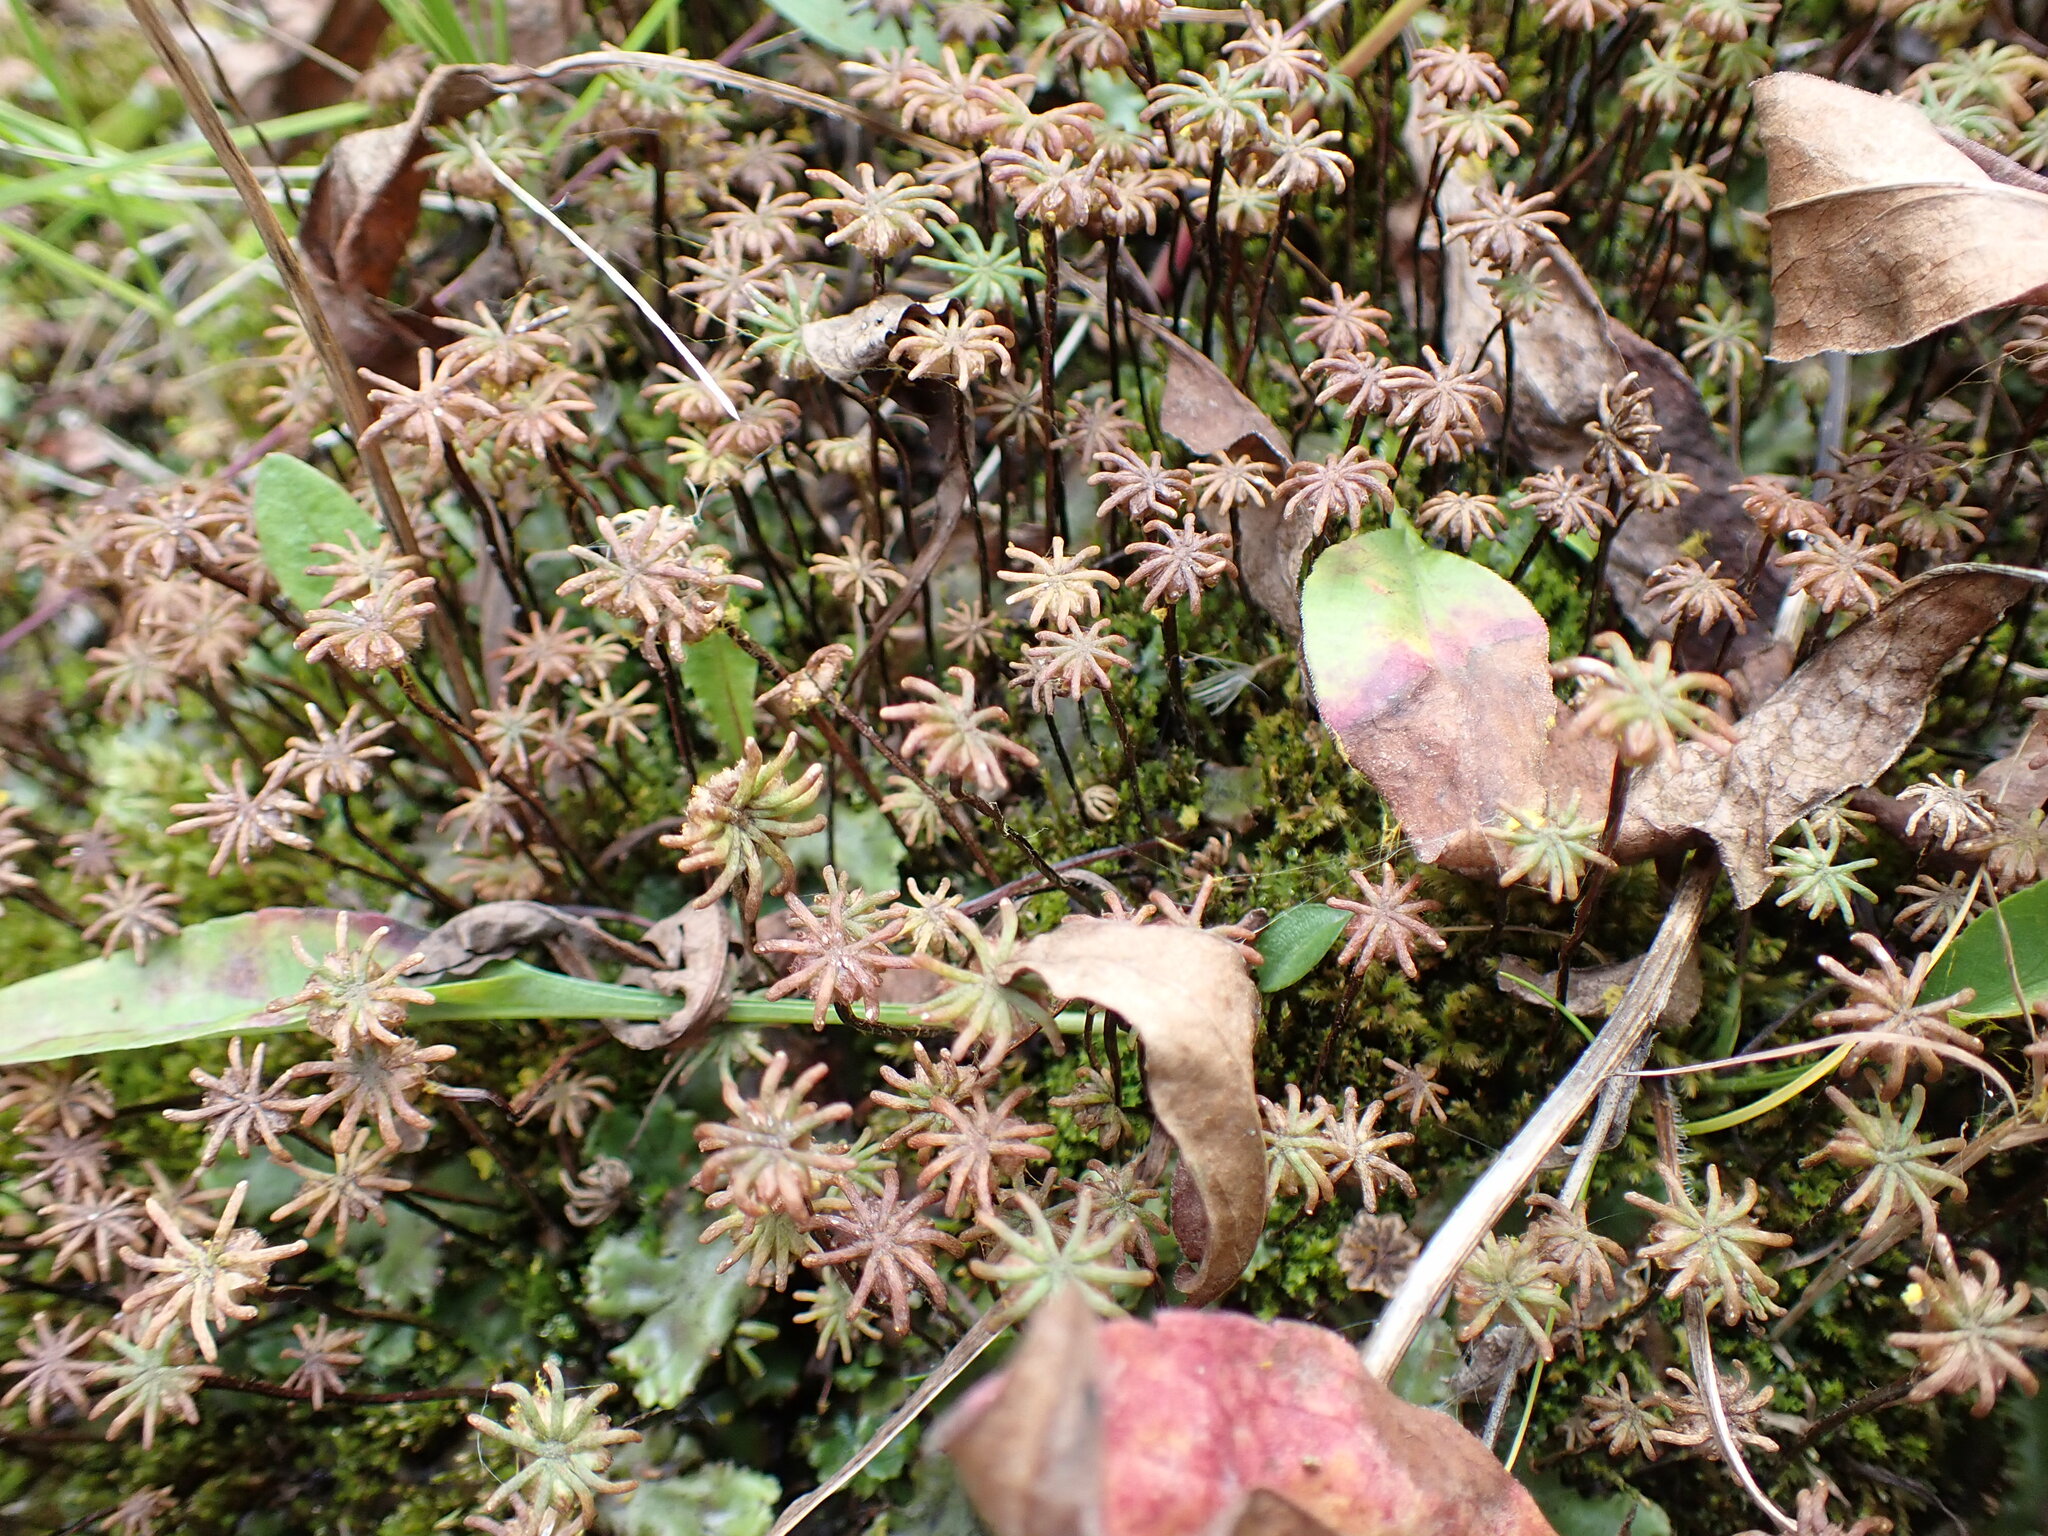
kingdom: Plantae
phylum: Marchantiophyta
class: Marchantiopsida
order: Marchantiales
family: Marchantiaceae
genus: Marchantia
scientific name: Marchantia polymorpha
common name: Common liverwort
